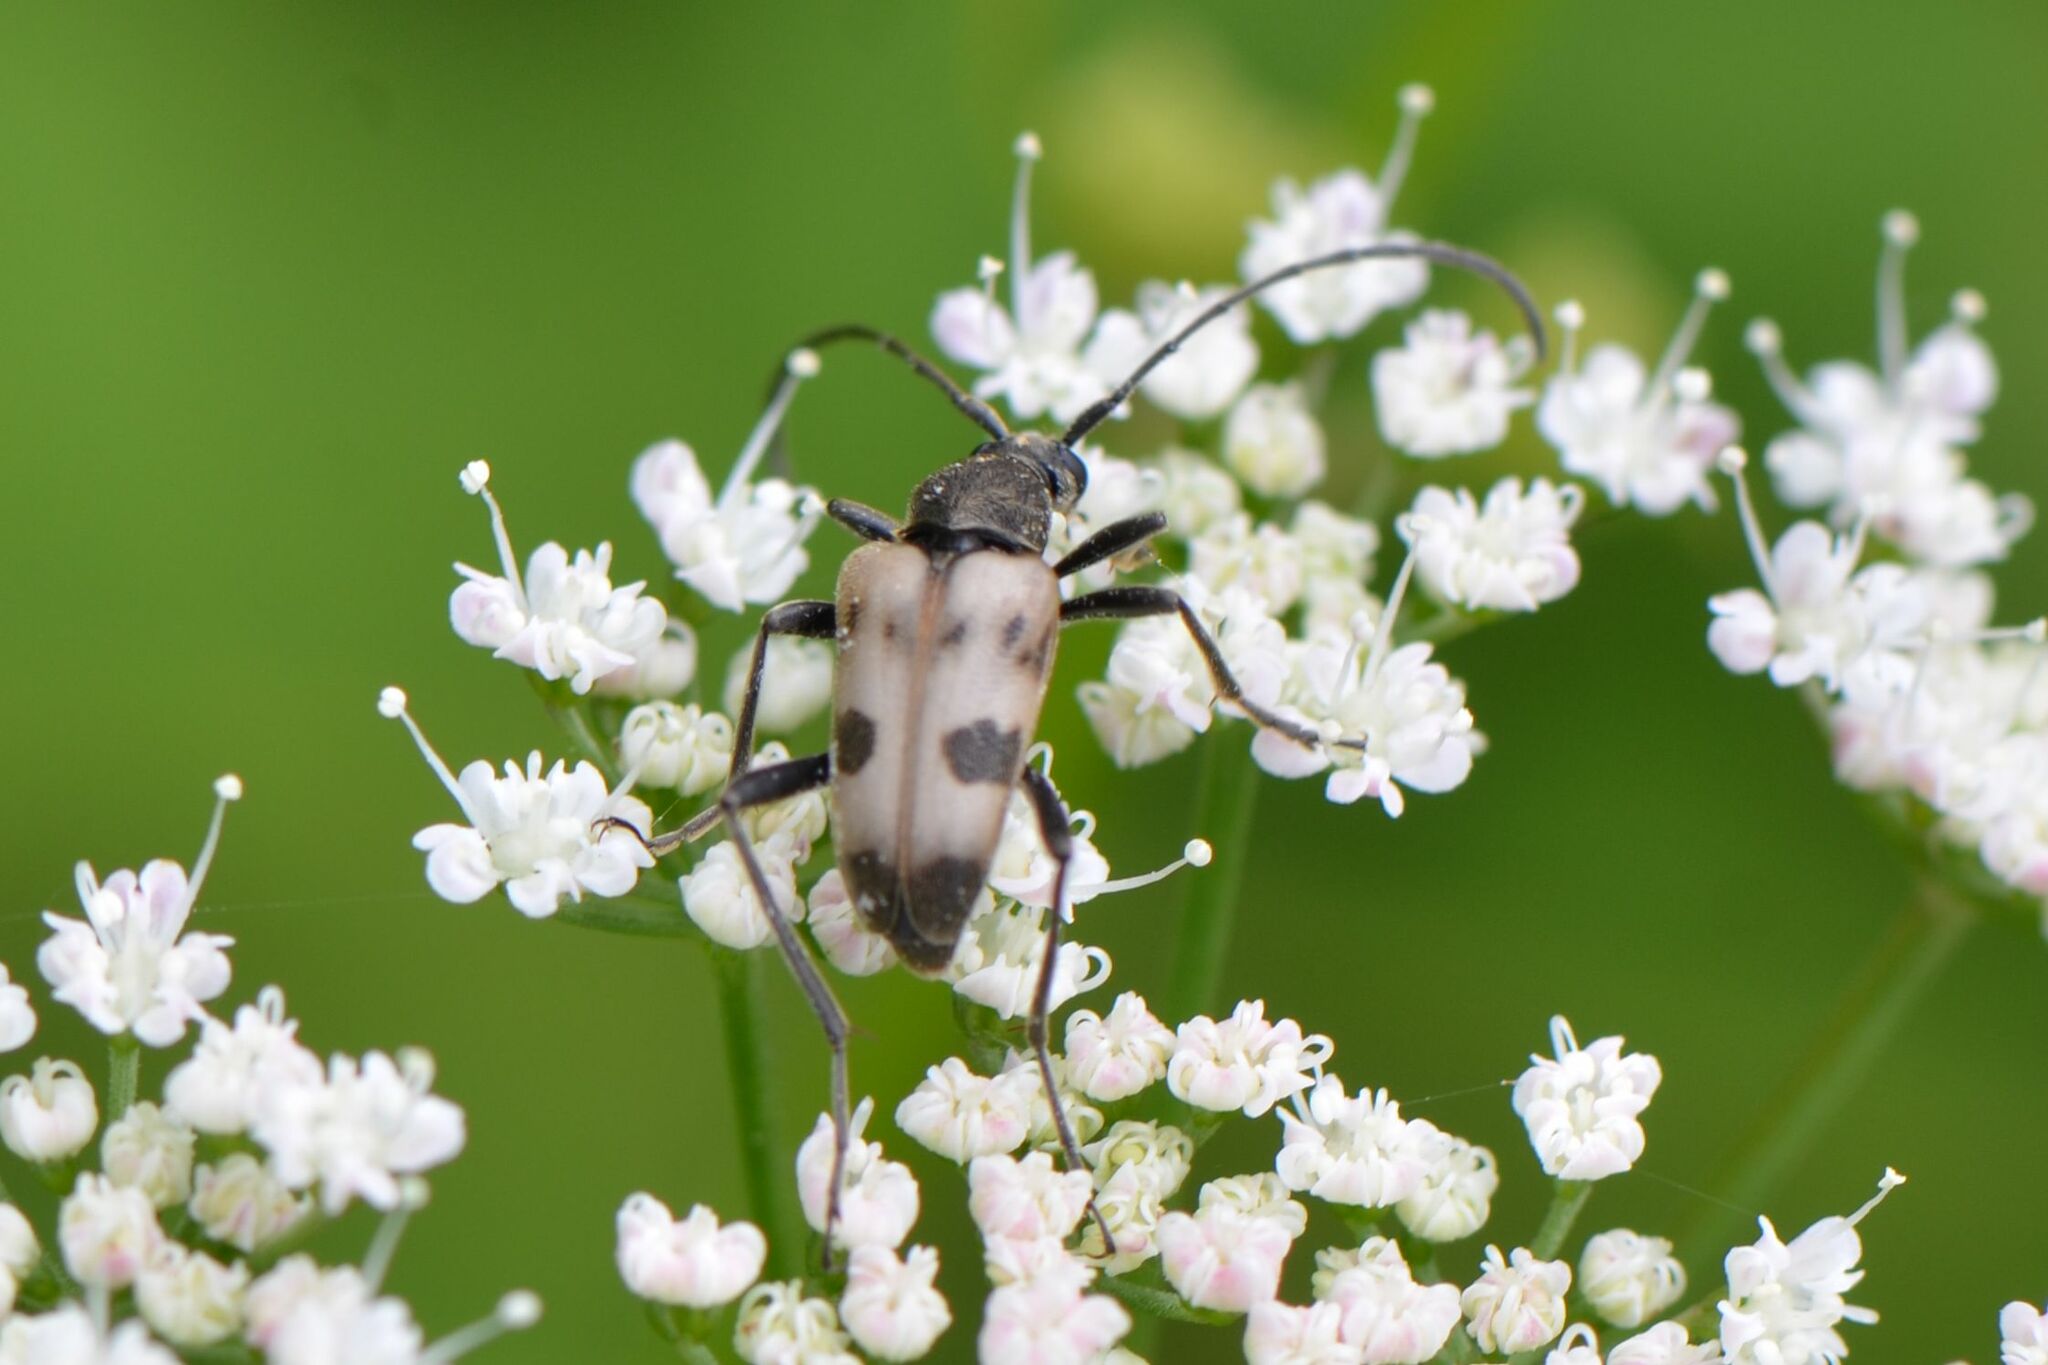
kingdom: Animalia
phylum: Arthropoda
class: Insecta
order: Coleoptera
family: Cerambycidae
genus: Pachytodes
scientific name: Pachytodes cerambyciformis
